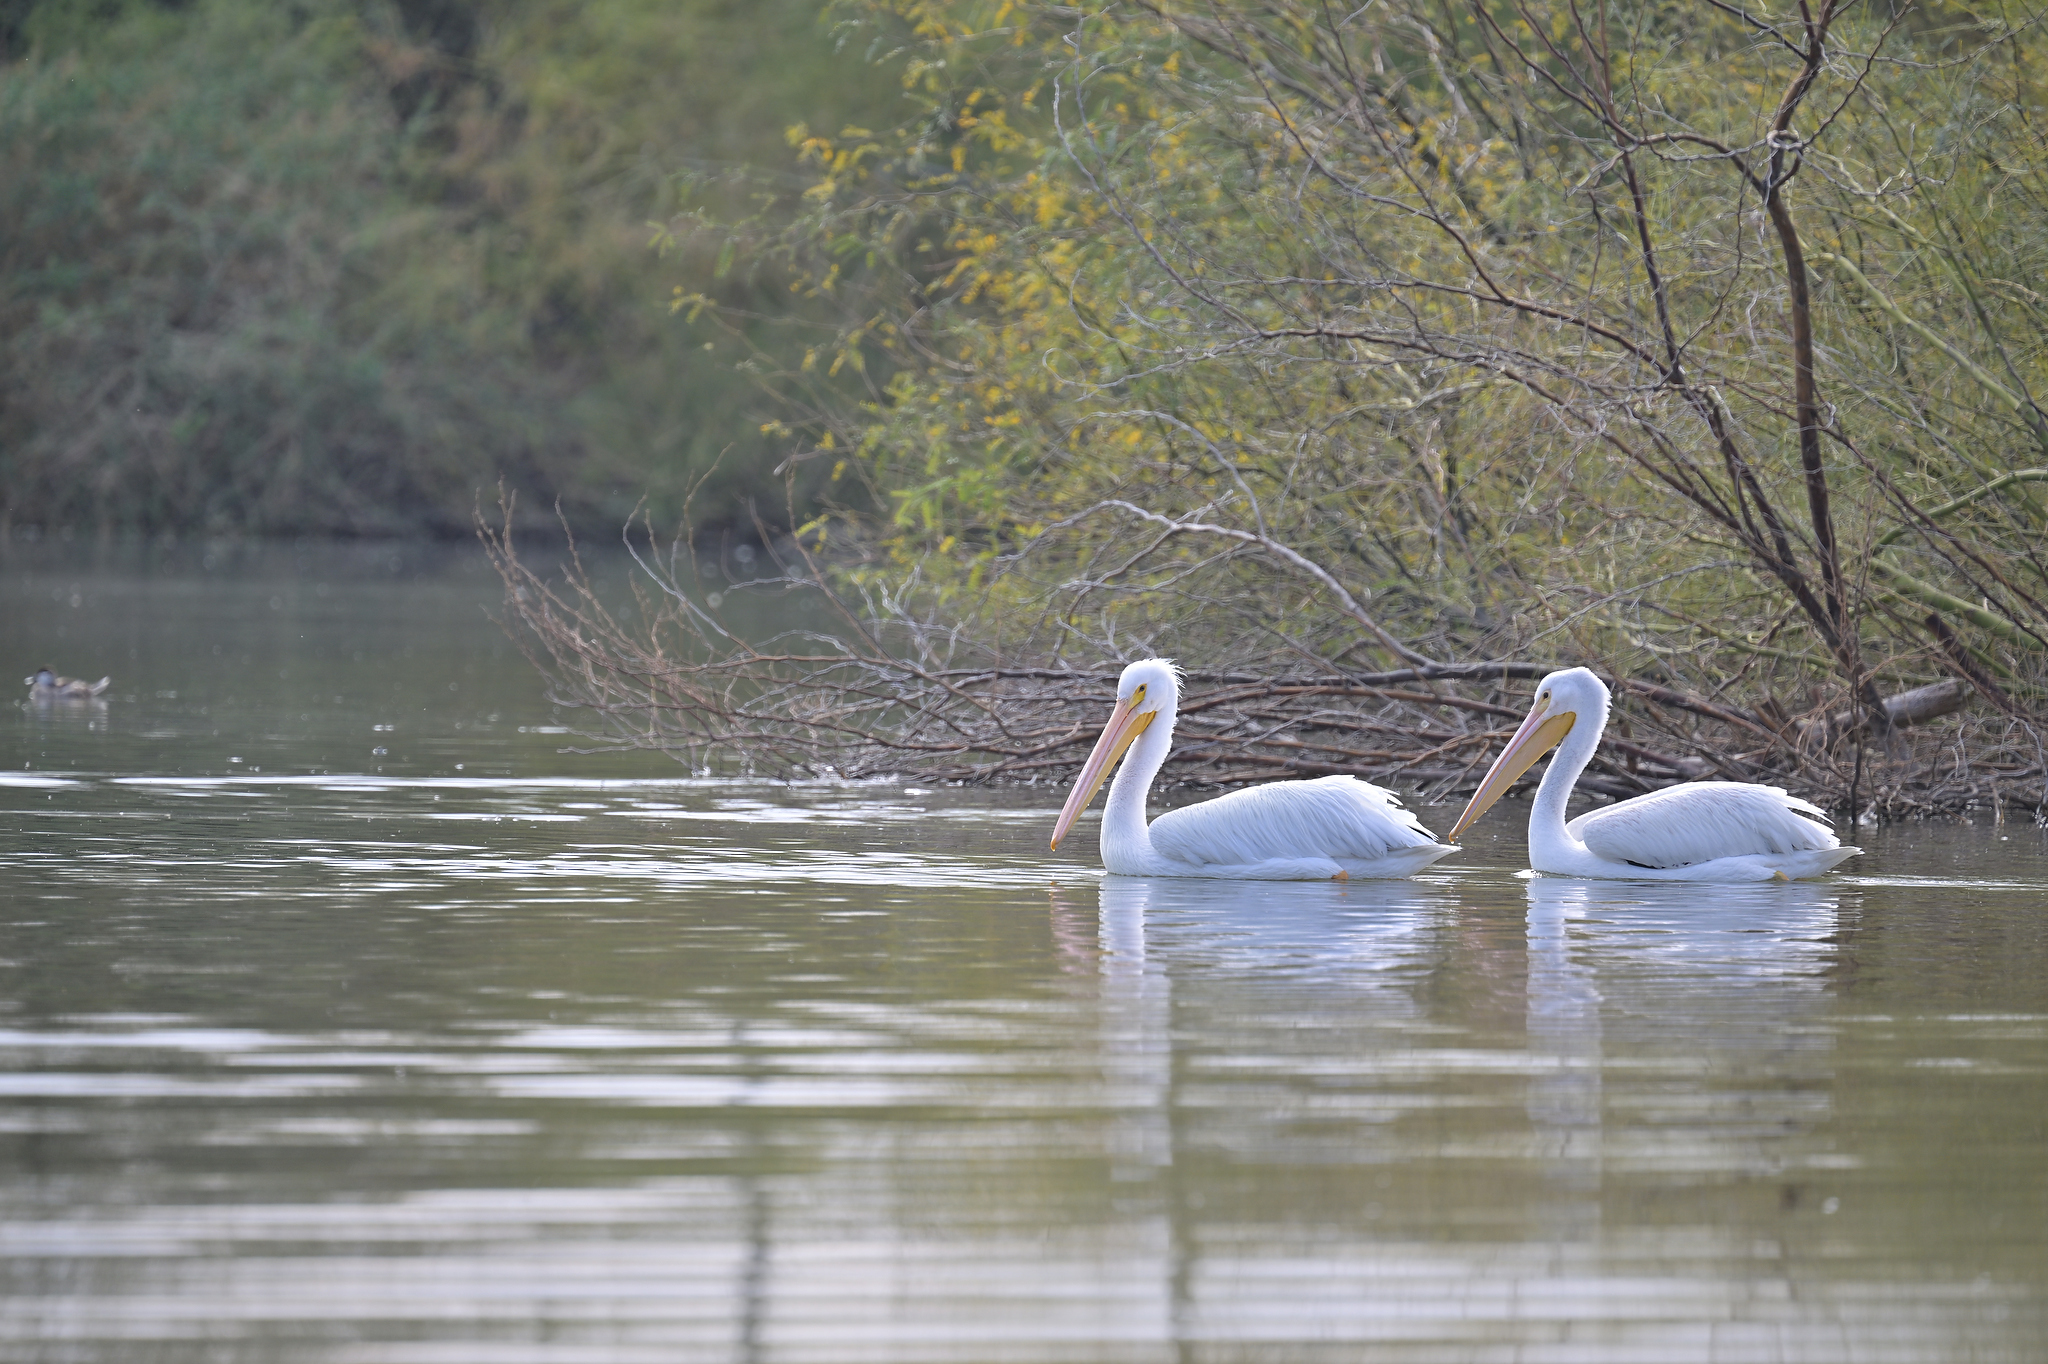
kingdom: Animalia
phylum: Chordata
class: Aves
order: Pelecaniformes
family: Pelecanidae
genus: Pelecanus
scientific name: Pelecanus erythrorhynchos
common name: American white pelican
